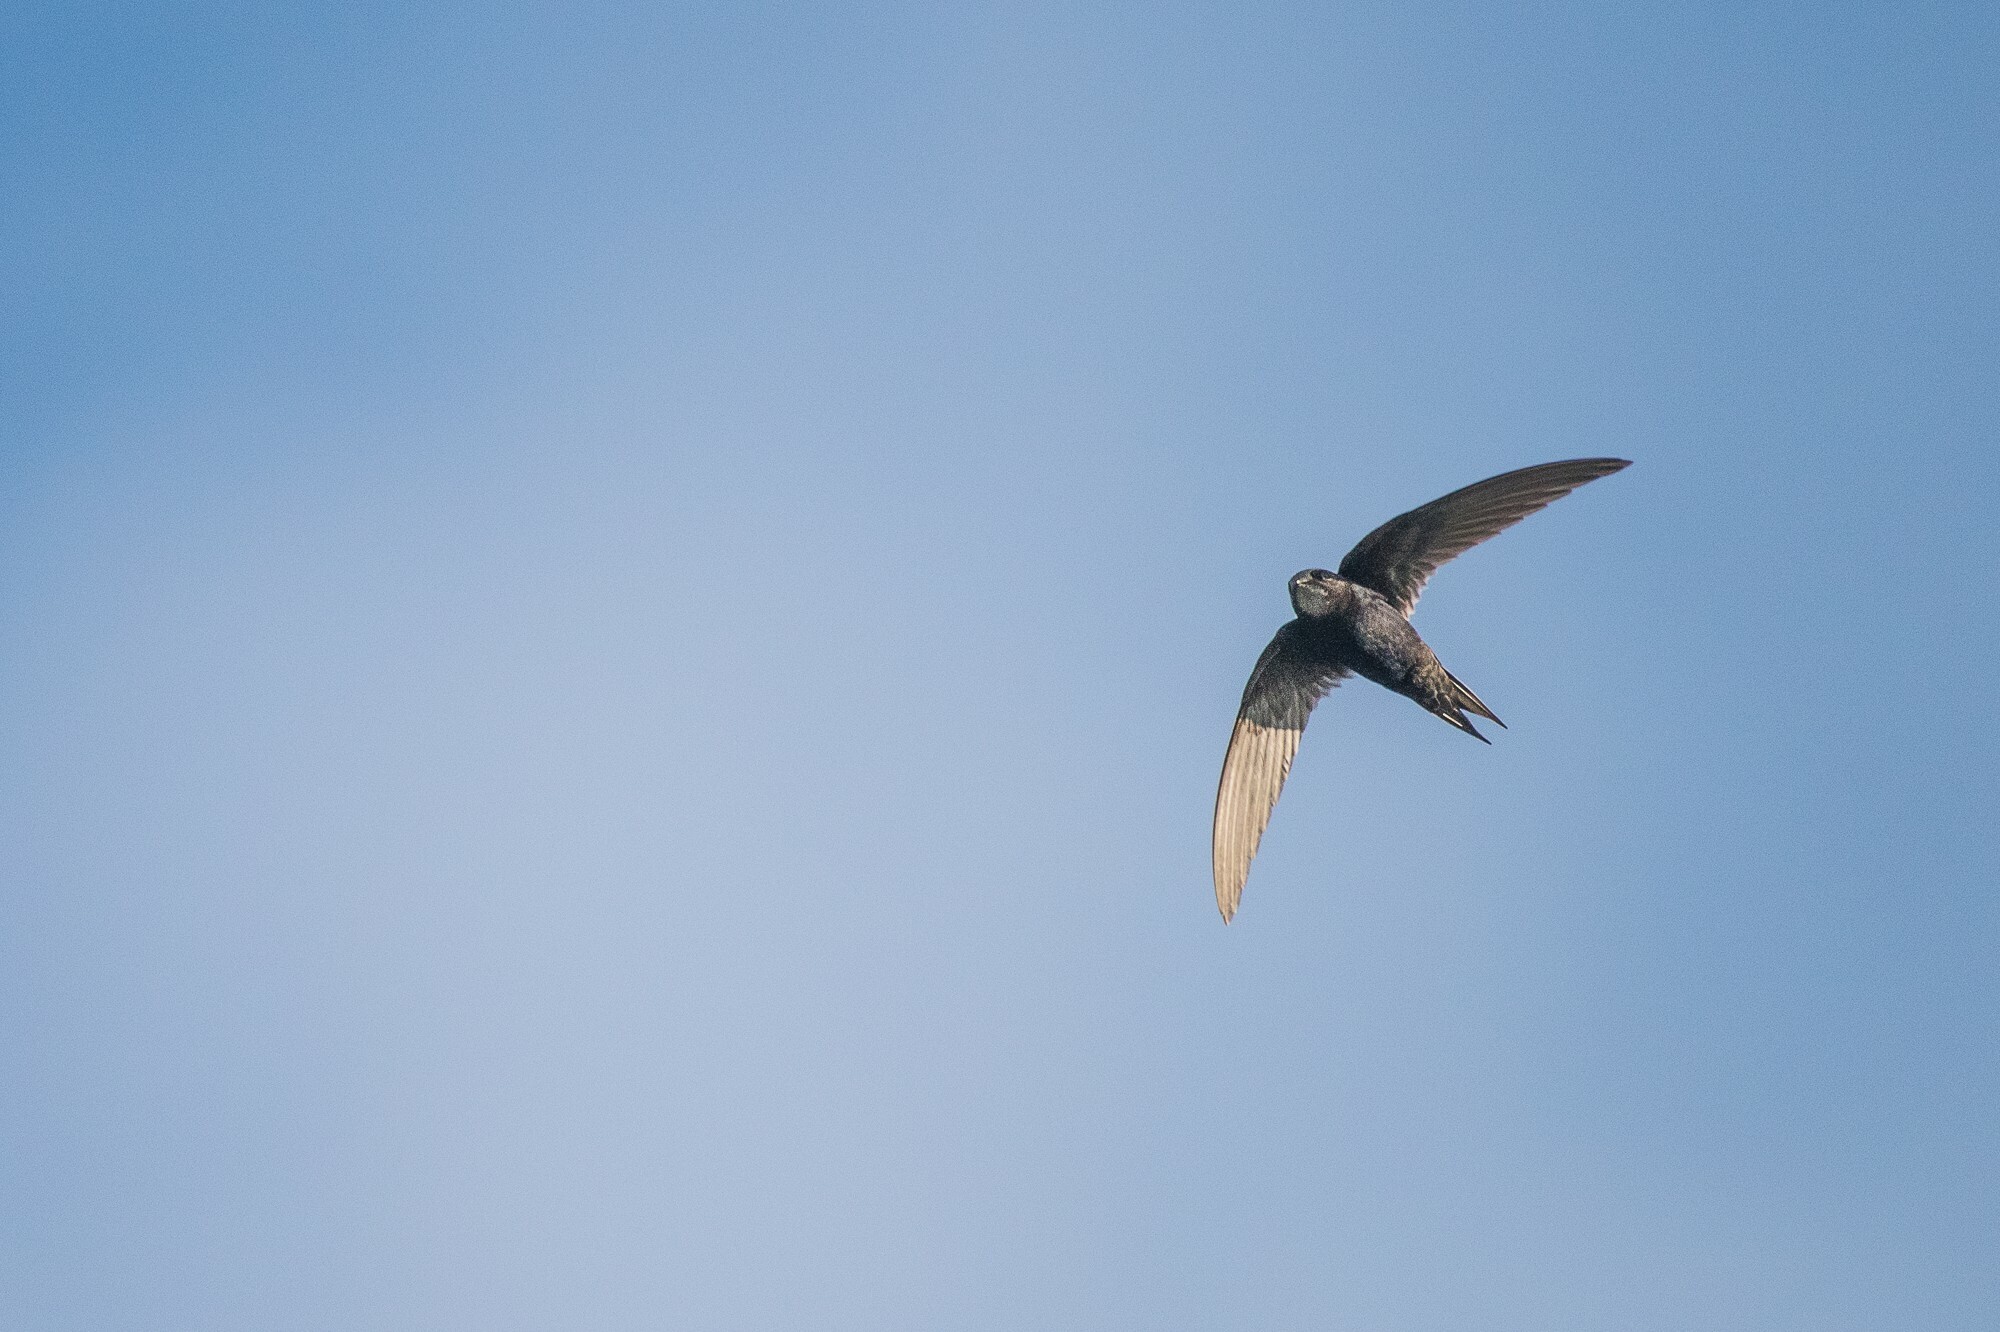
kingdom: Animalia
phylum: Chordata
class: Aves
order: Apodiformes
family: Apodidae
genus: Apus
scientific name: Apus caffer
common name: White-rumped swift
